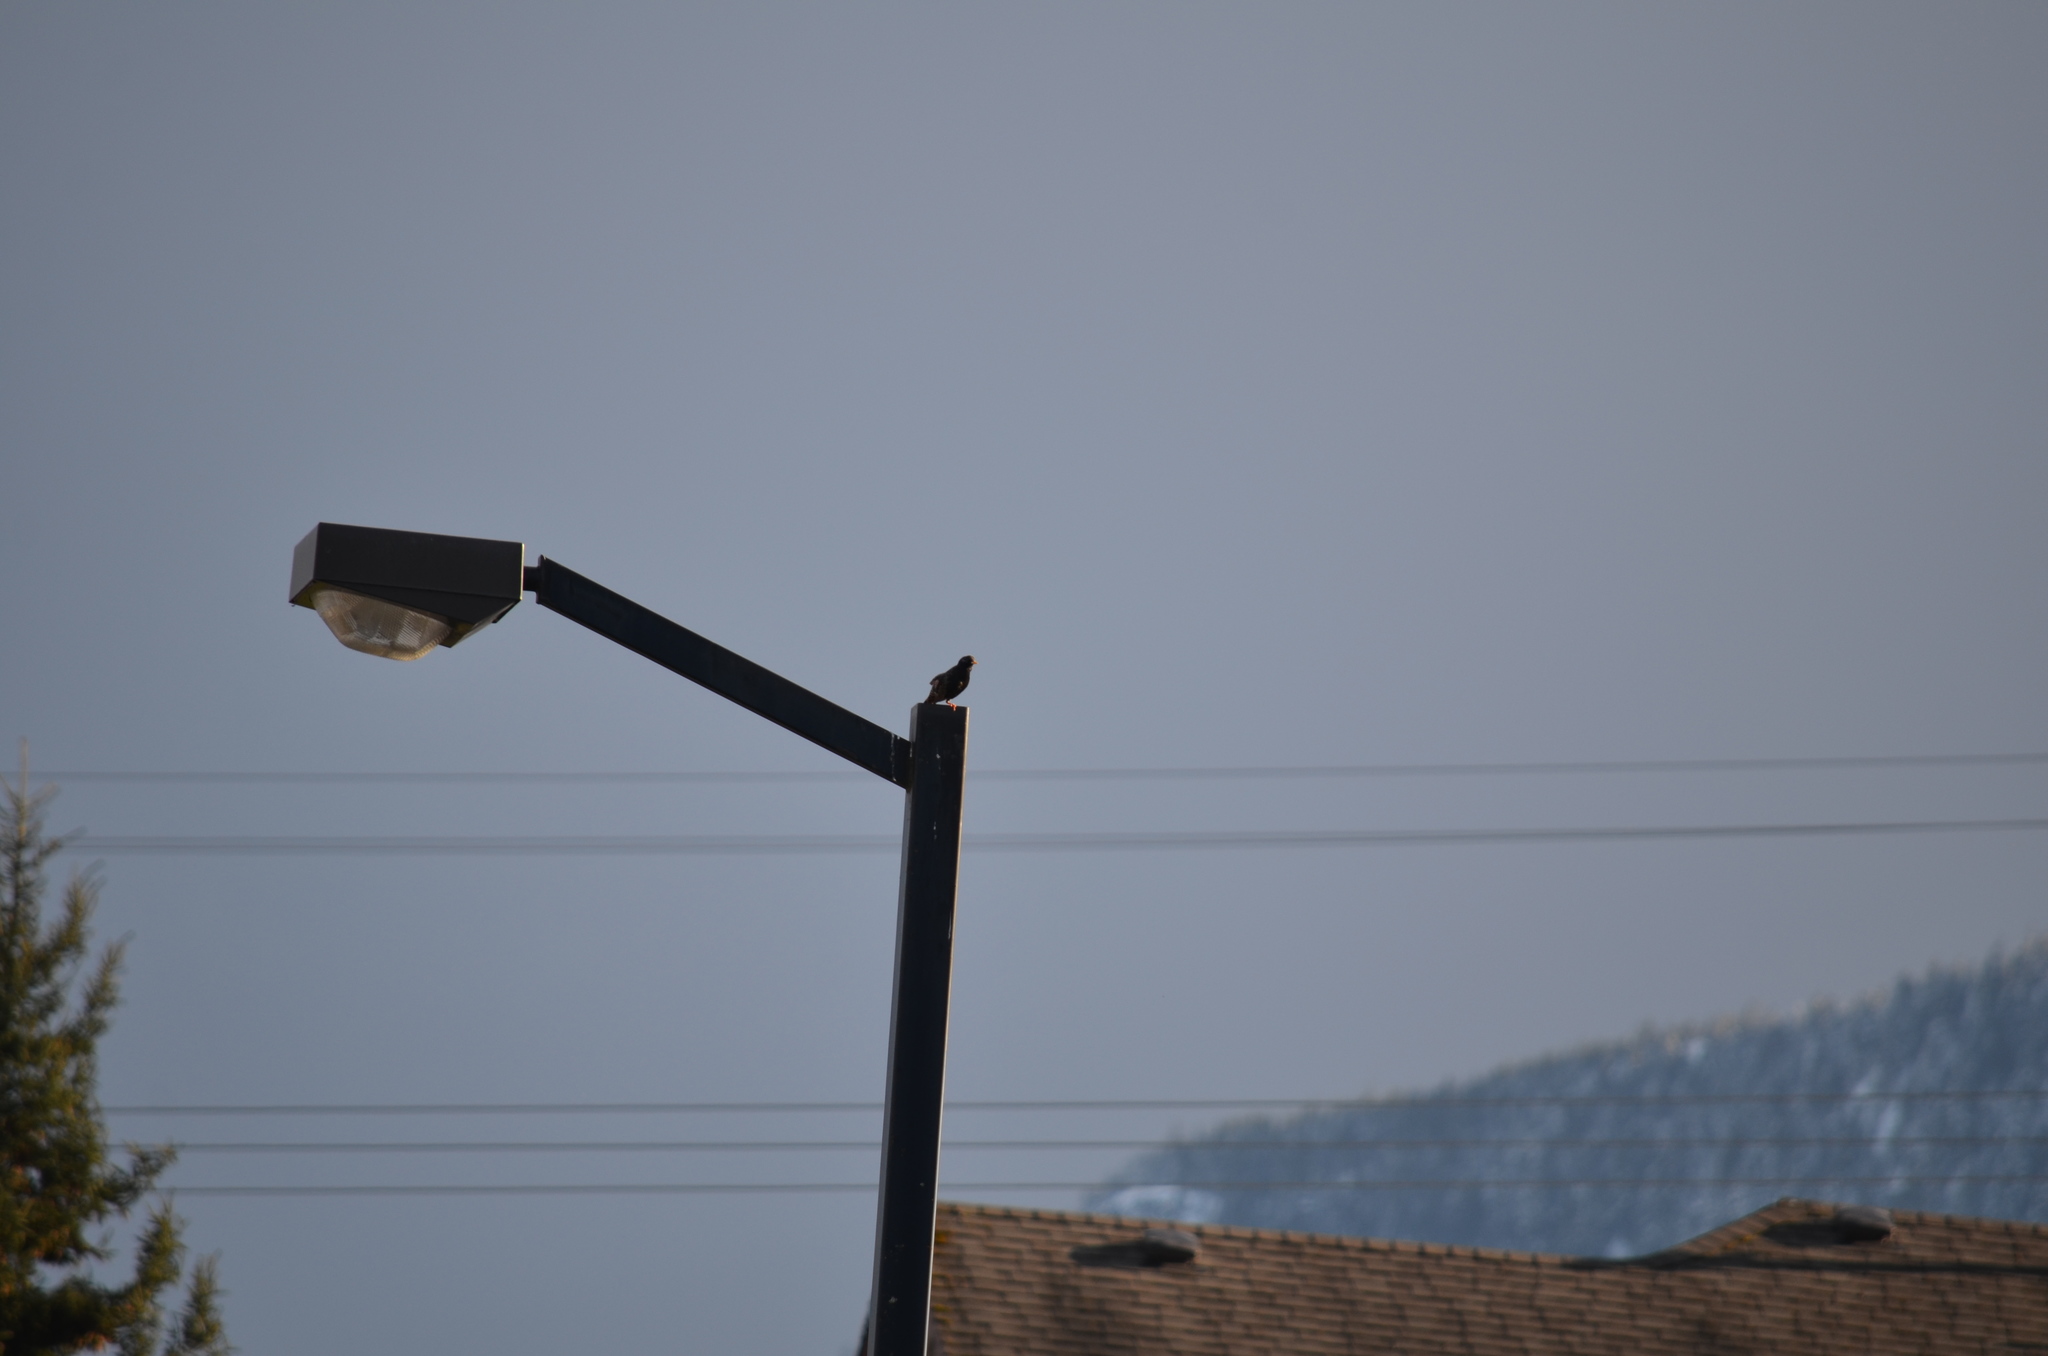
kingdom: Animalia
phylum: Chordata
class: Aves
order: Passeriformes
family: Sturnidae
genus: Sturnus
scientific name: Sturnus vulgaris
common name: Common starling
